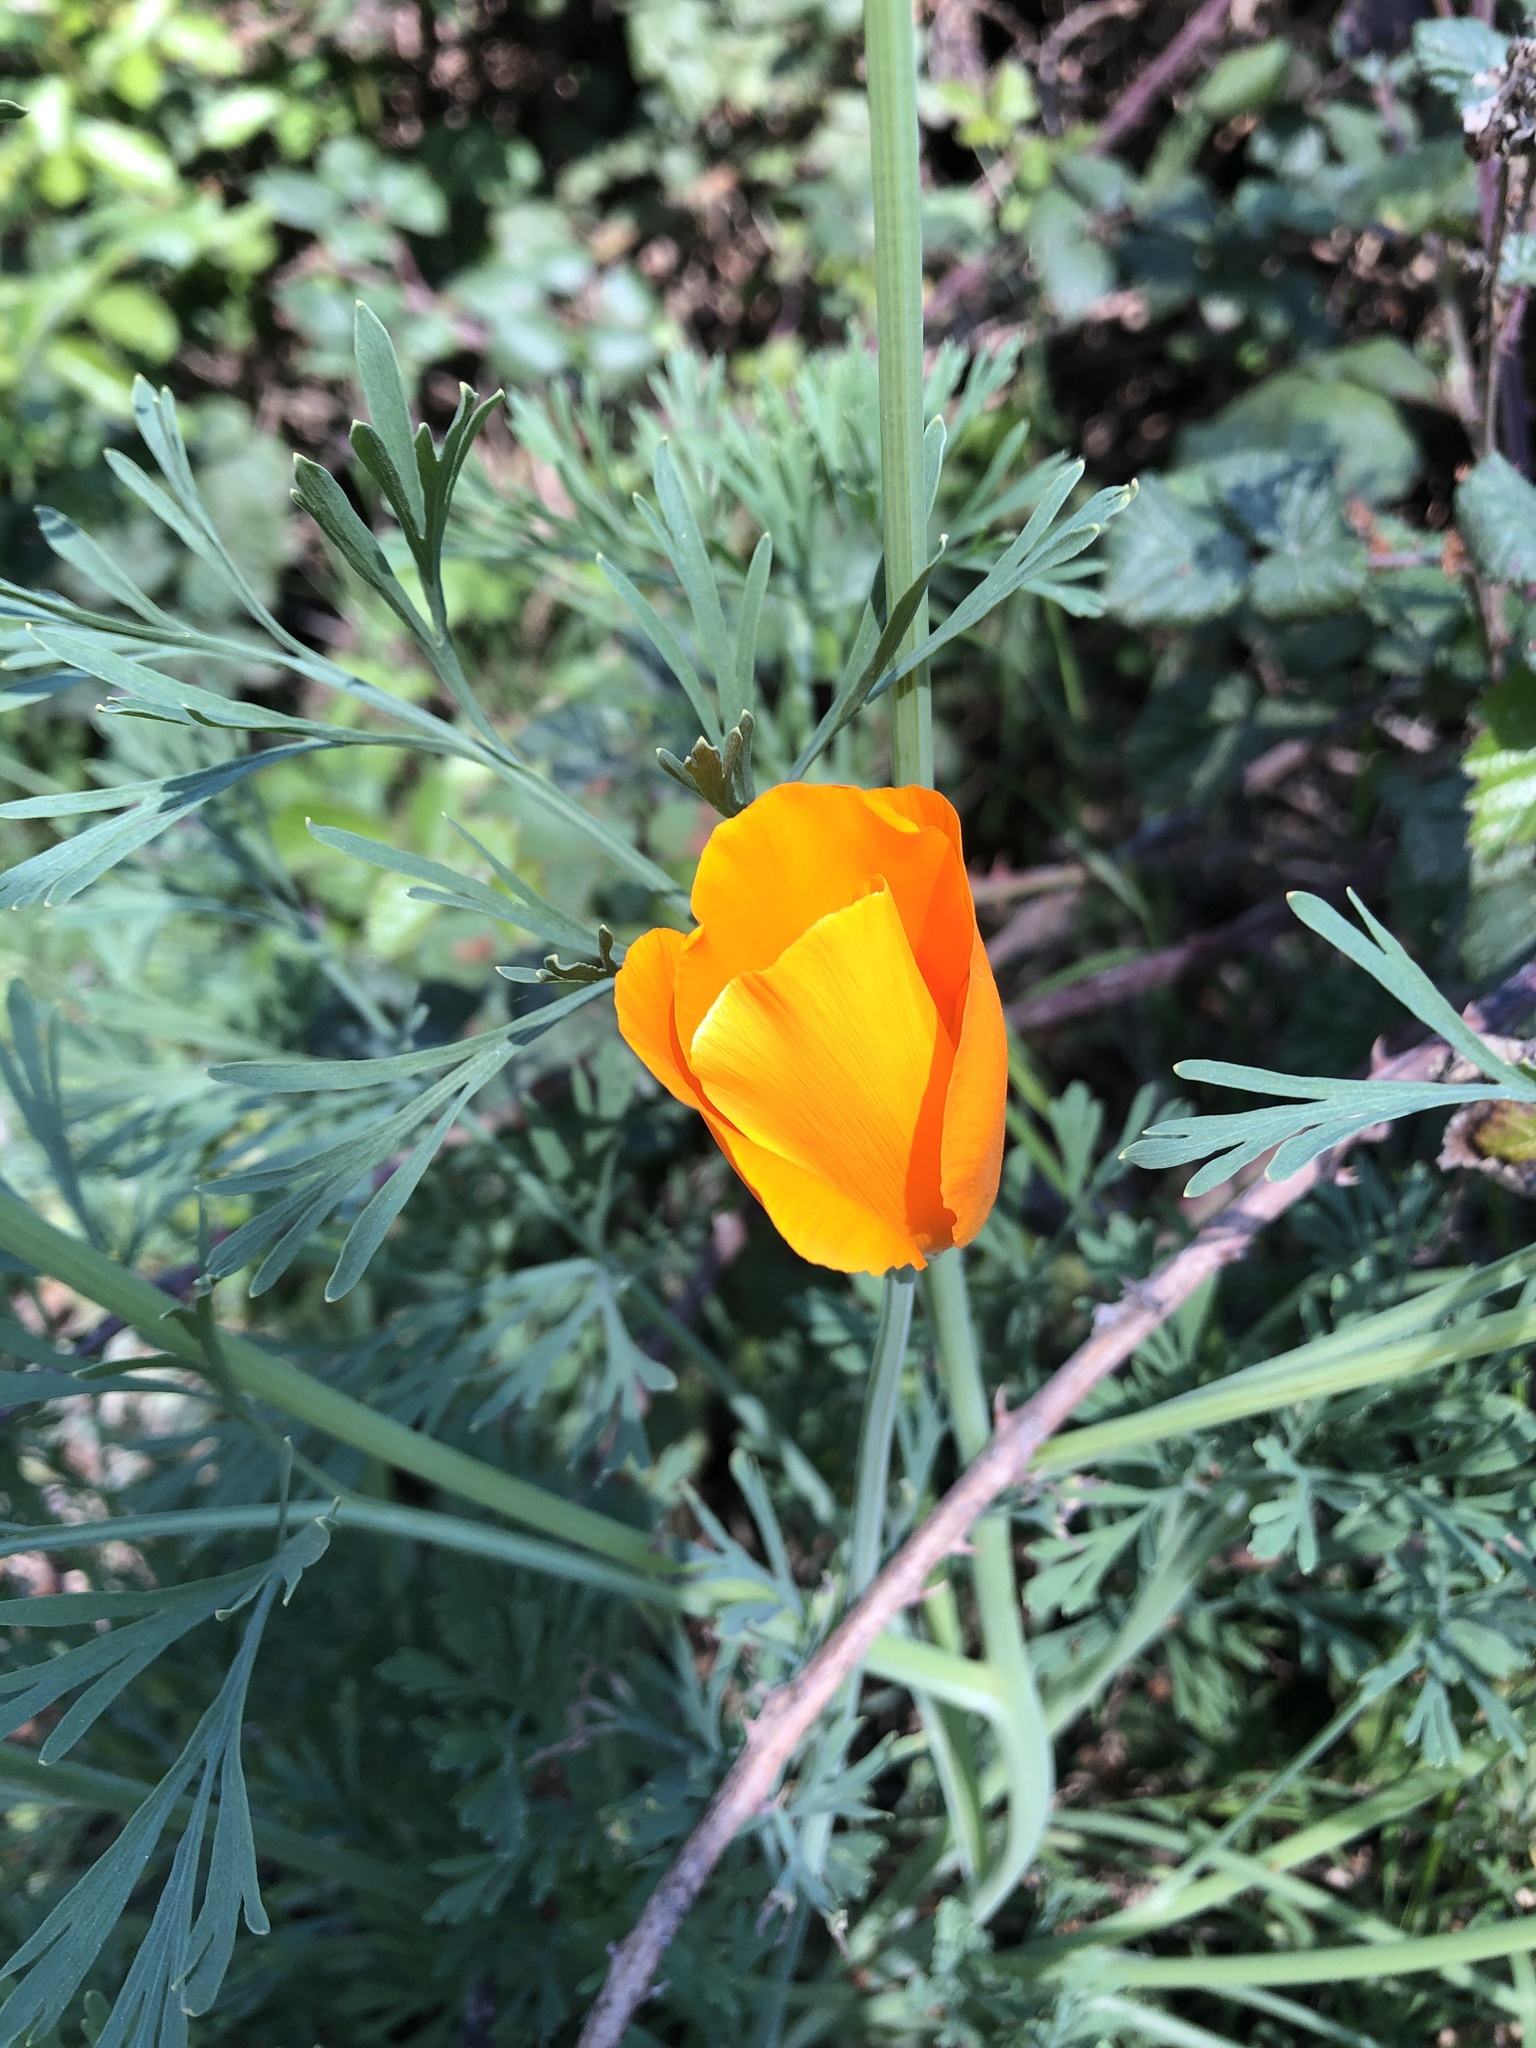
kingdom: Plantae
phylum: Tracheophyta
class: Magnoliopsida
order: Ranunculales
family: Papaveraceae
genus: Eschscholzia
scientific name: Eschscholzia californica
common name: California poppy
